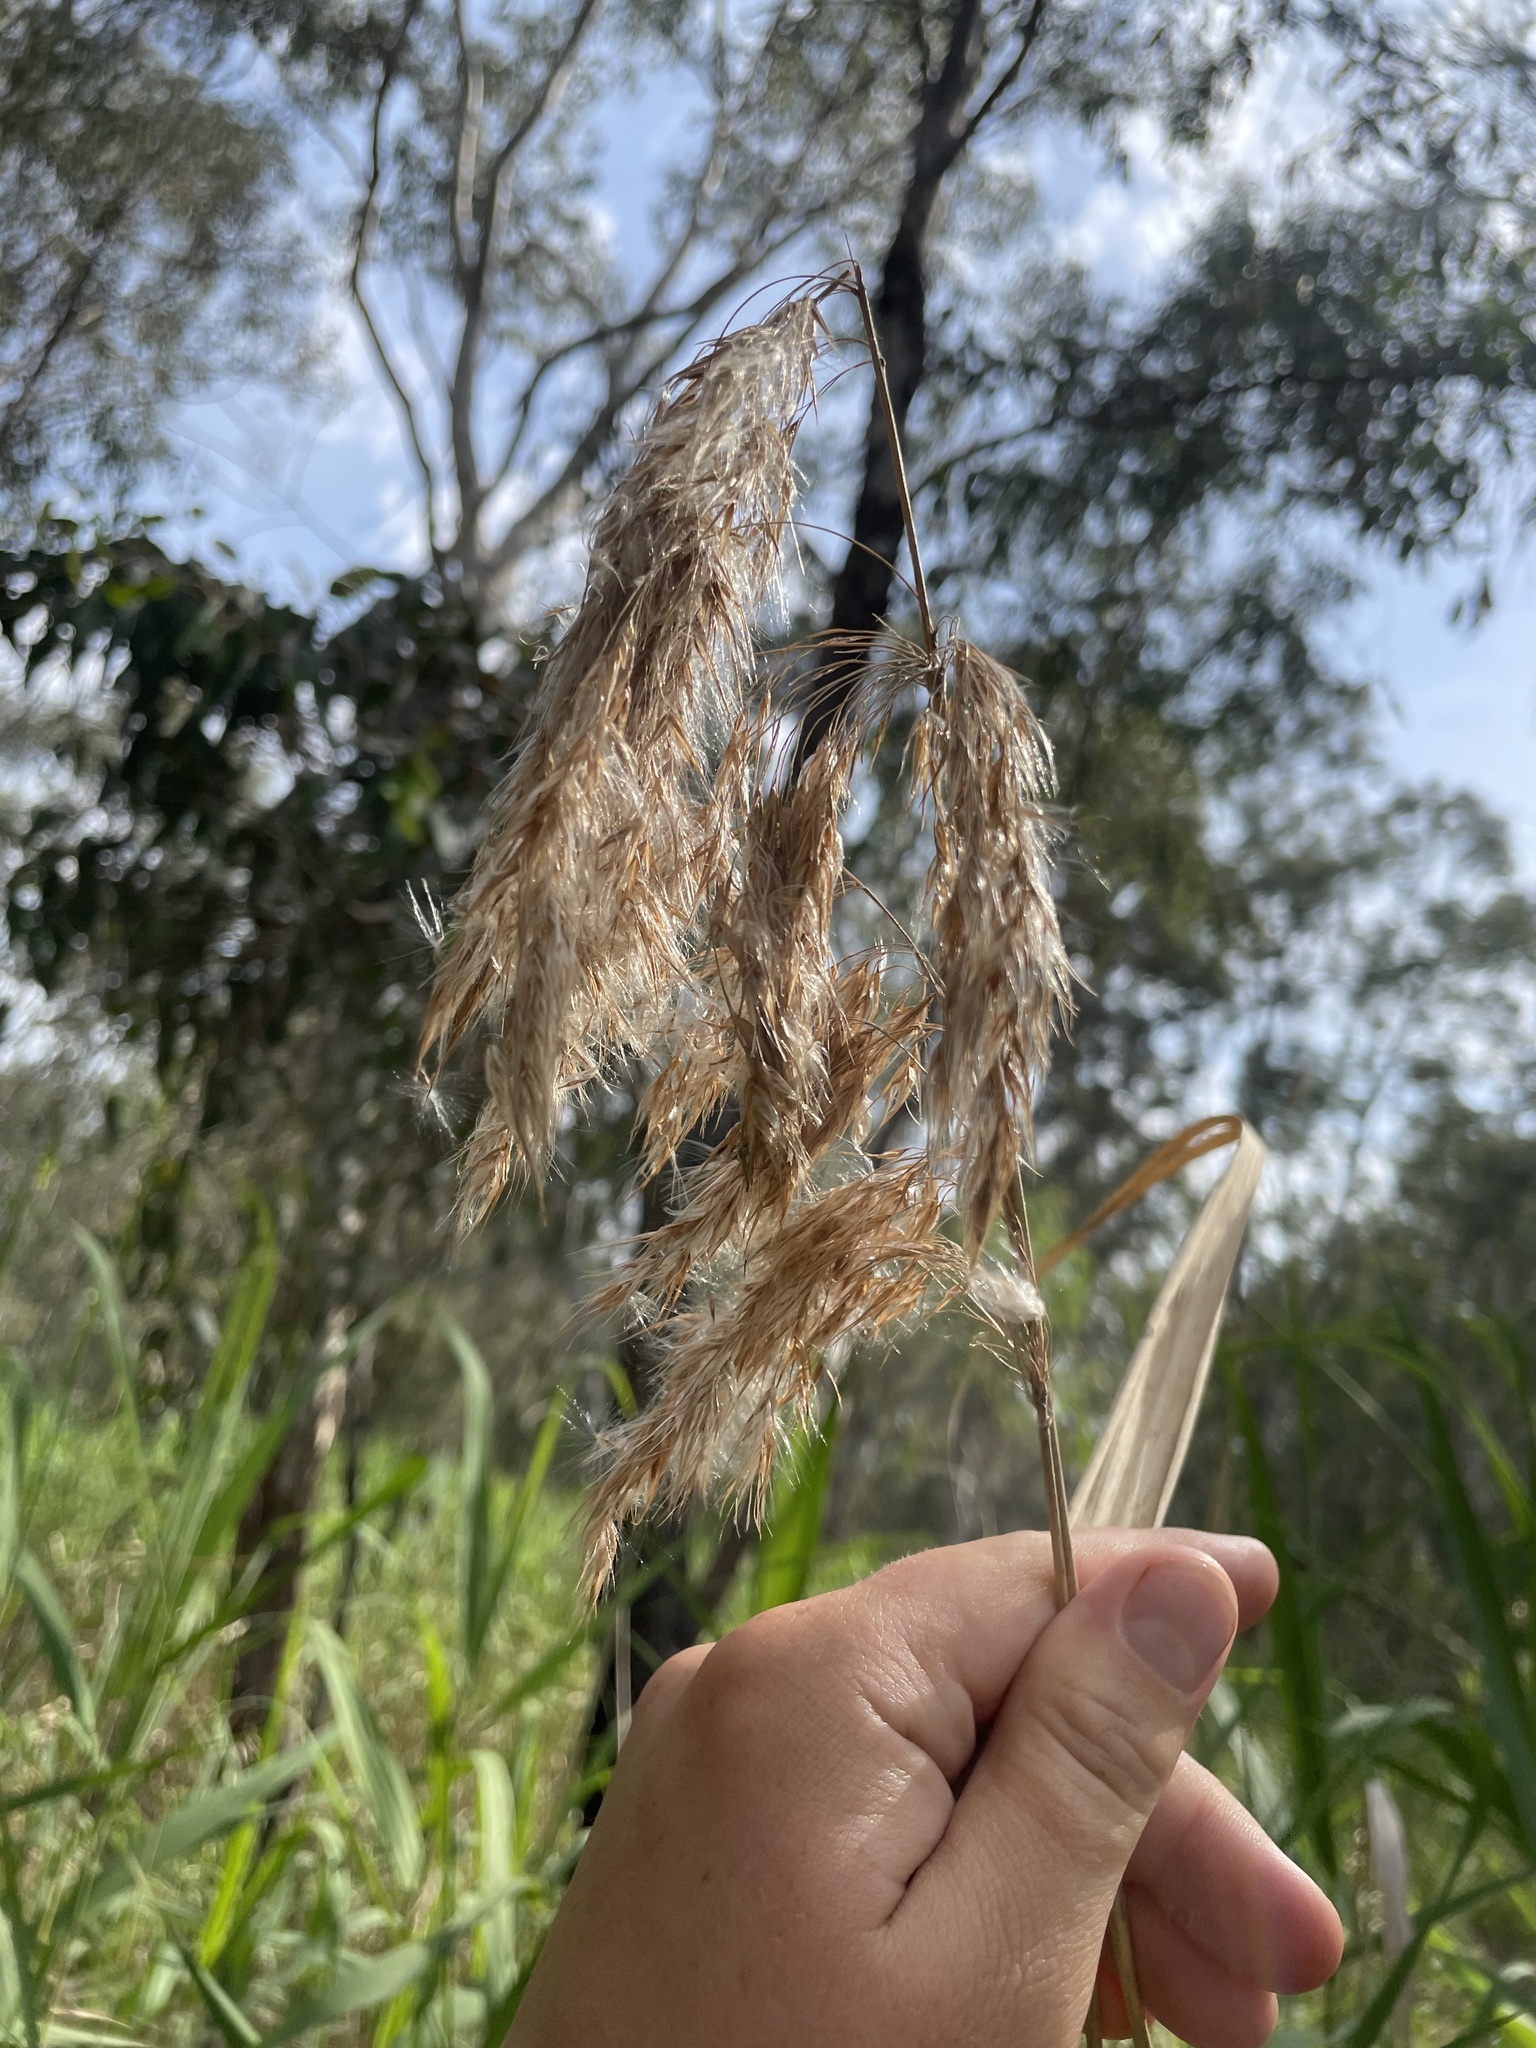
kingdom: Plantae
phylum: Tracheophyta
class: Liliopsida
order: Poales
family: Poaceae
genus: Phragmites
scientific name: Phragmites australis
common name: Common reed
